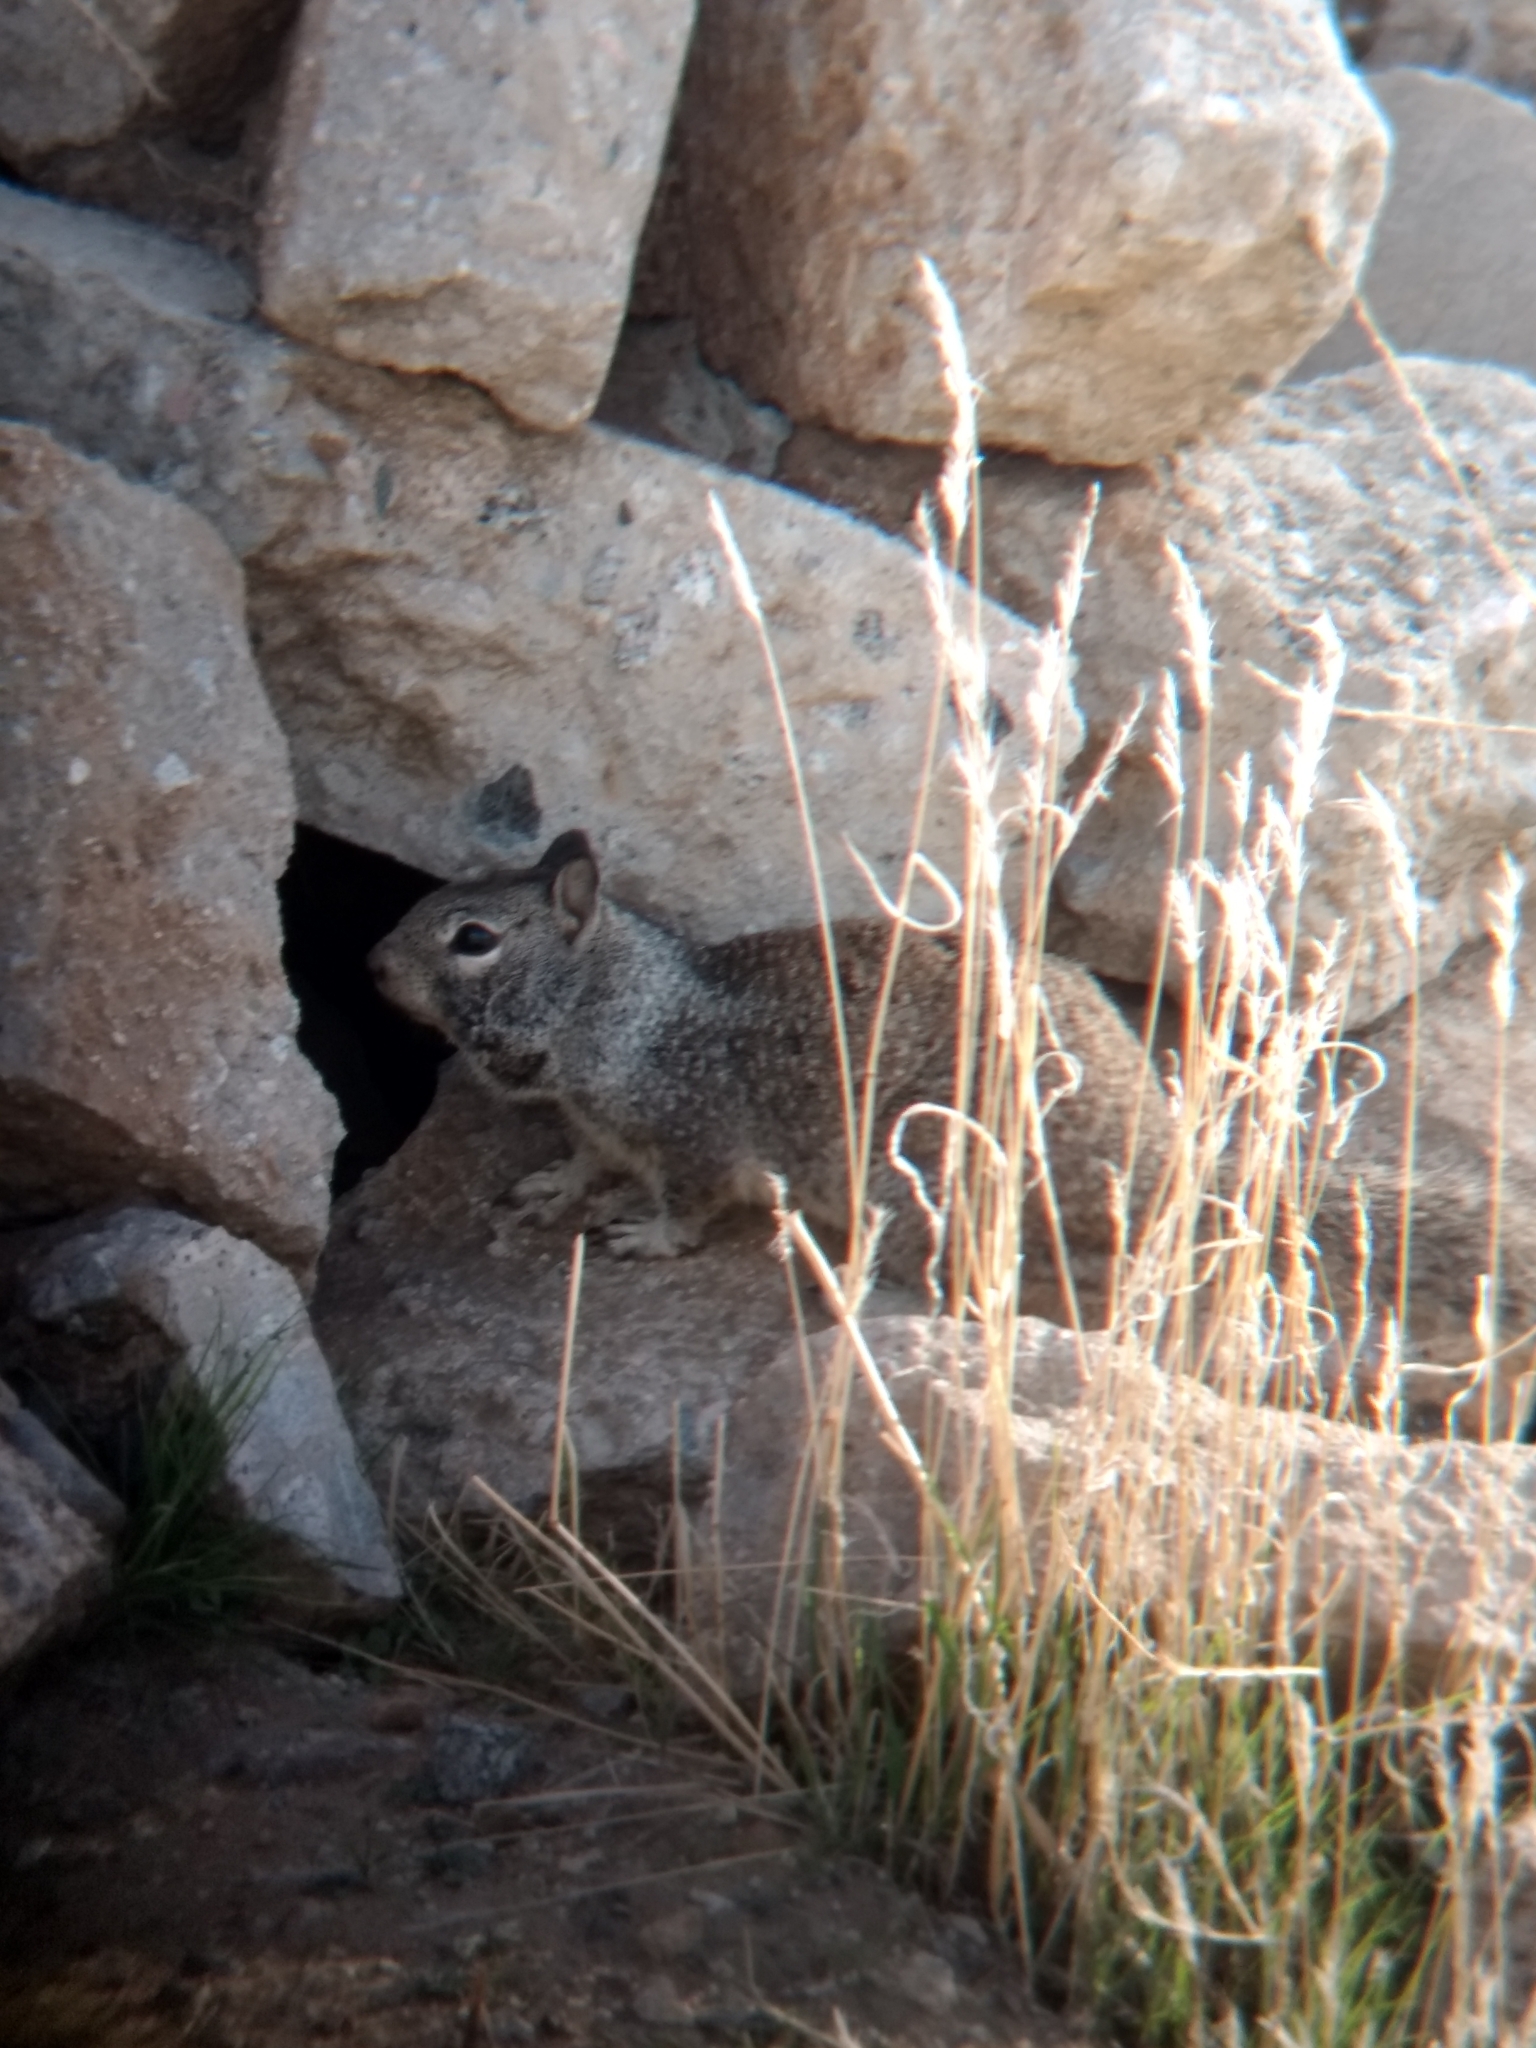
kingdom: Animalia
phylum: Chordata
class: Mammalia
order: Rodentia
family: Sciuridae
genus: Otospermophilus
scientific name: Otospermophilus beecheyi
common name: California ground squirrel
